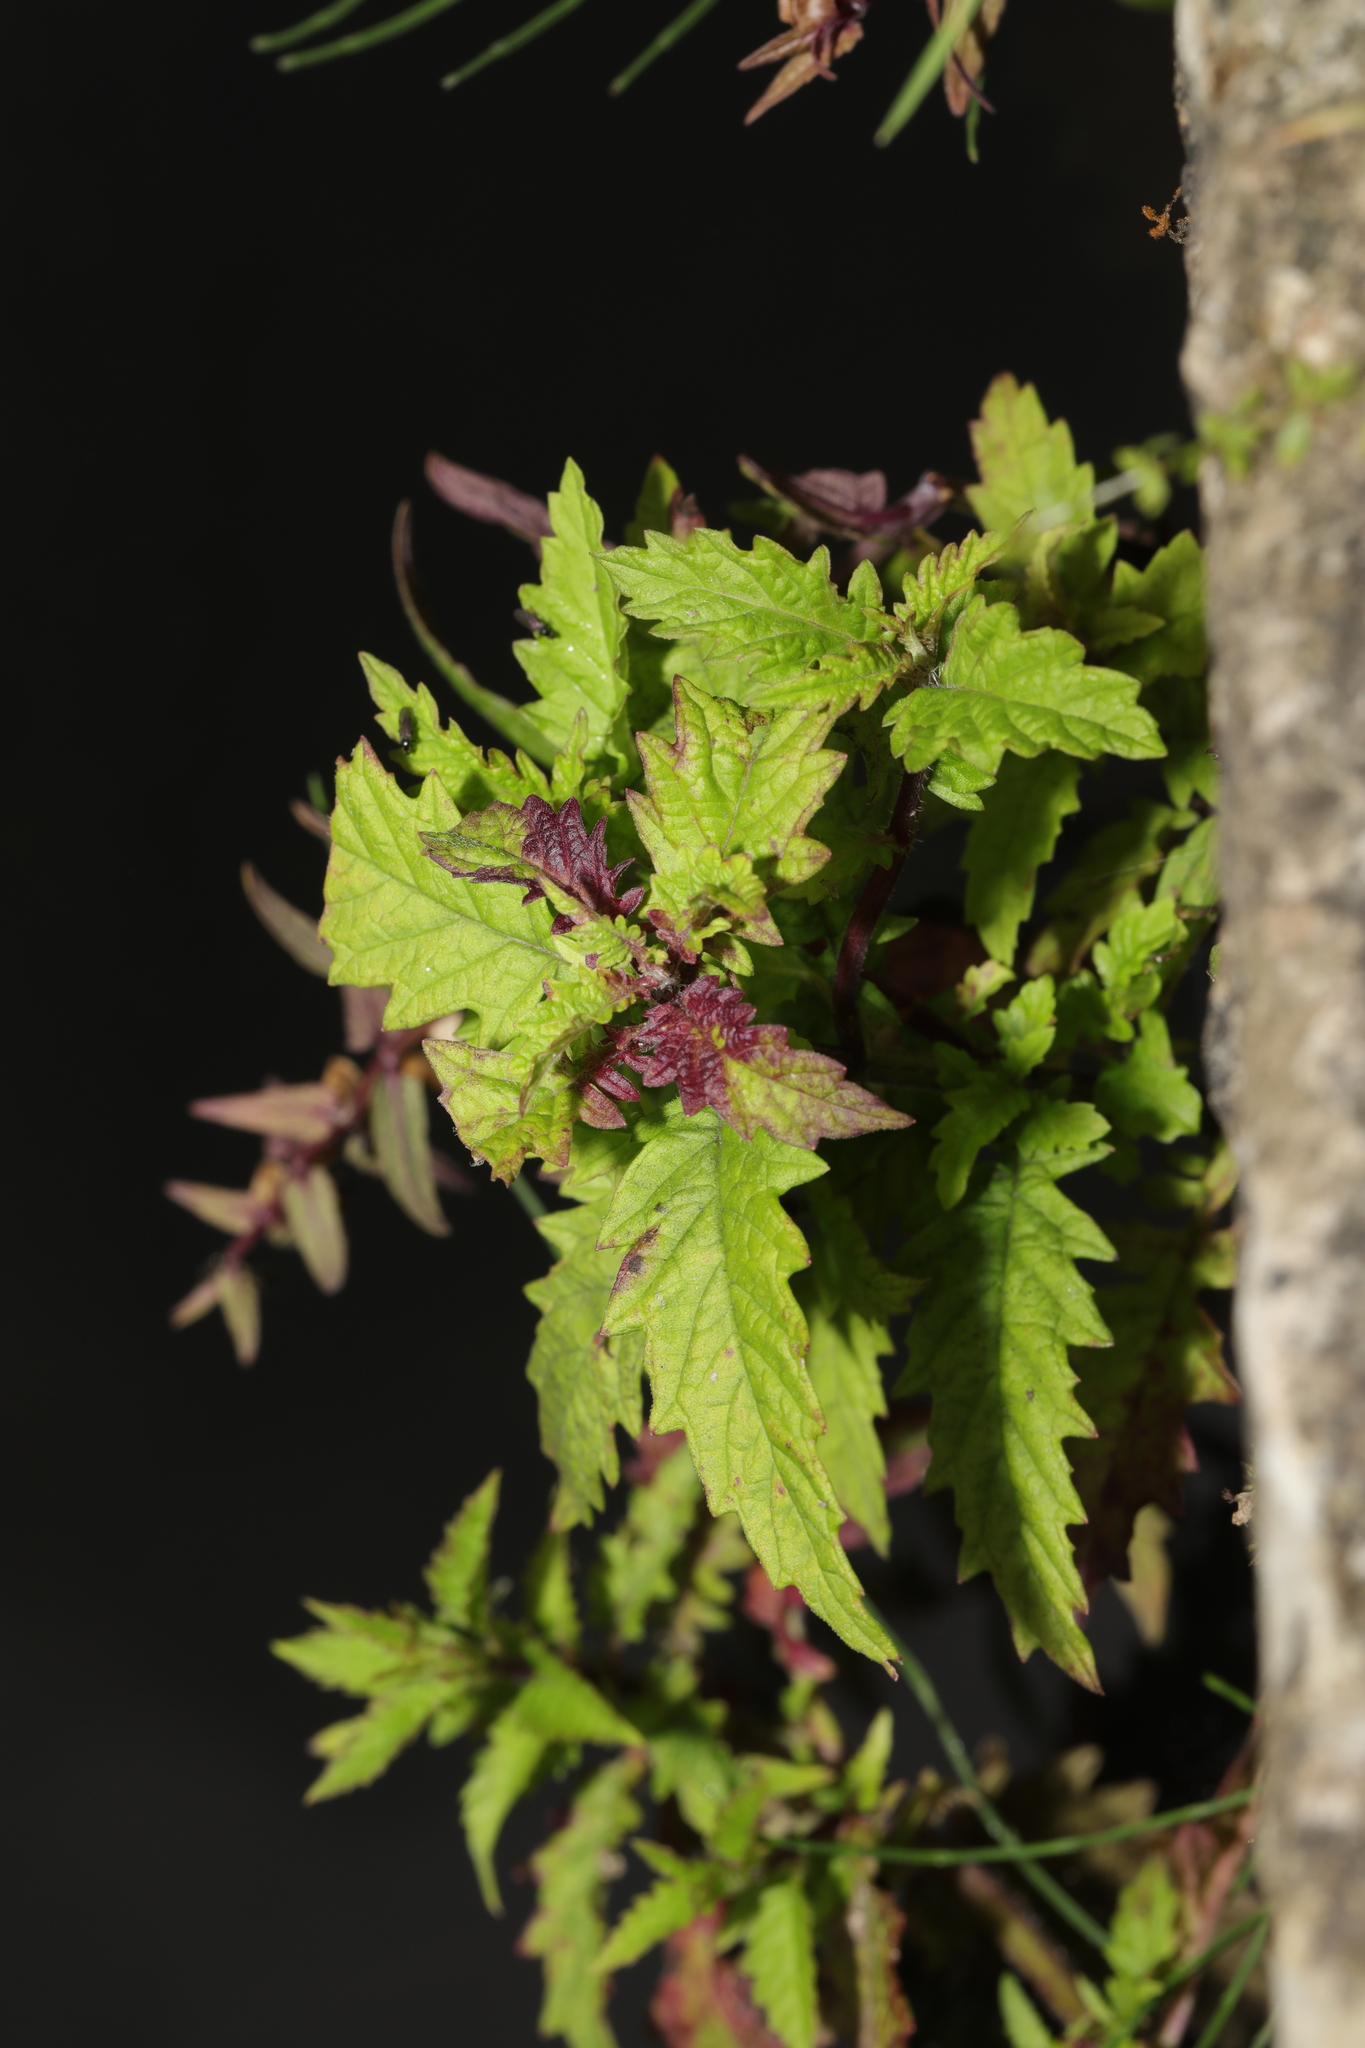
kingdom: Plantae
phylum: Tracheophyta
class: Magnoliopsida
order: Lamiales
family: Lamiaceae
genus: Lycopus
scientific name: Lycopus europaeus
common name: European bugleweed
